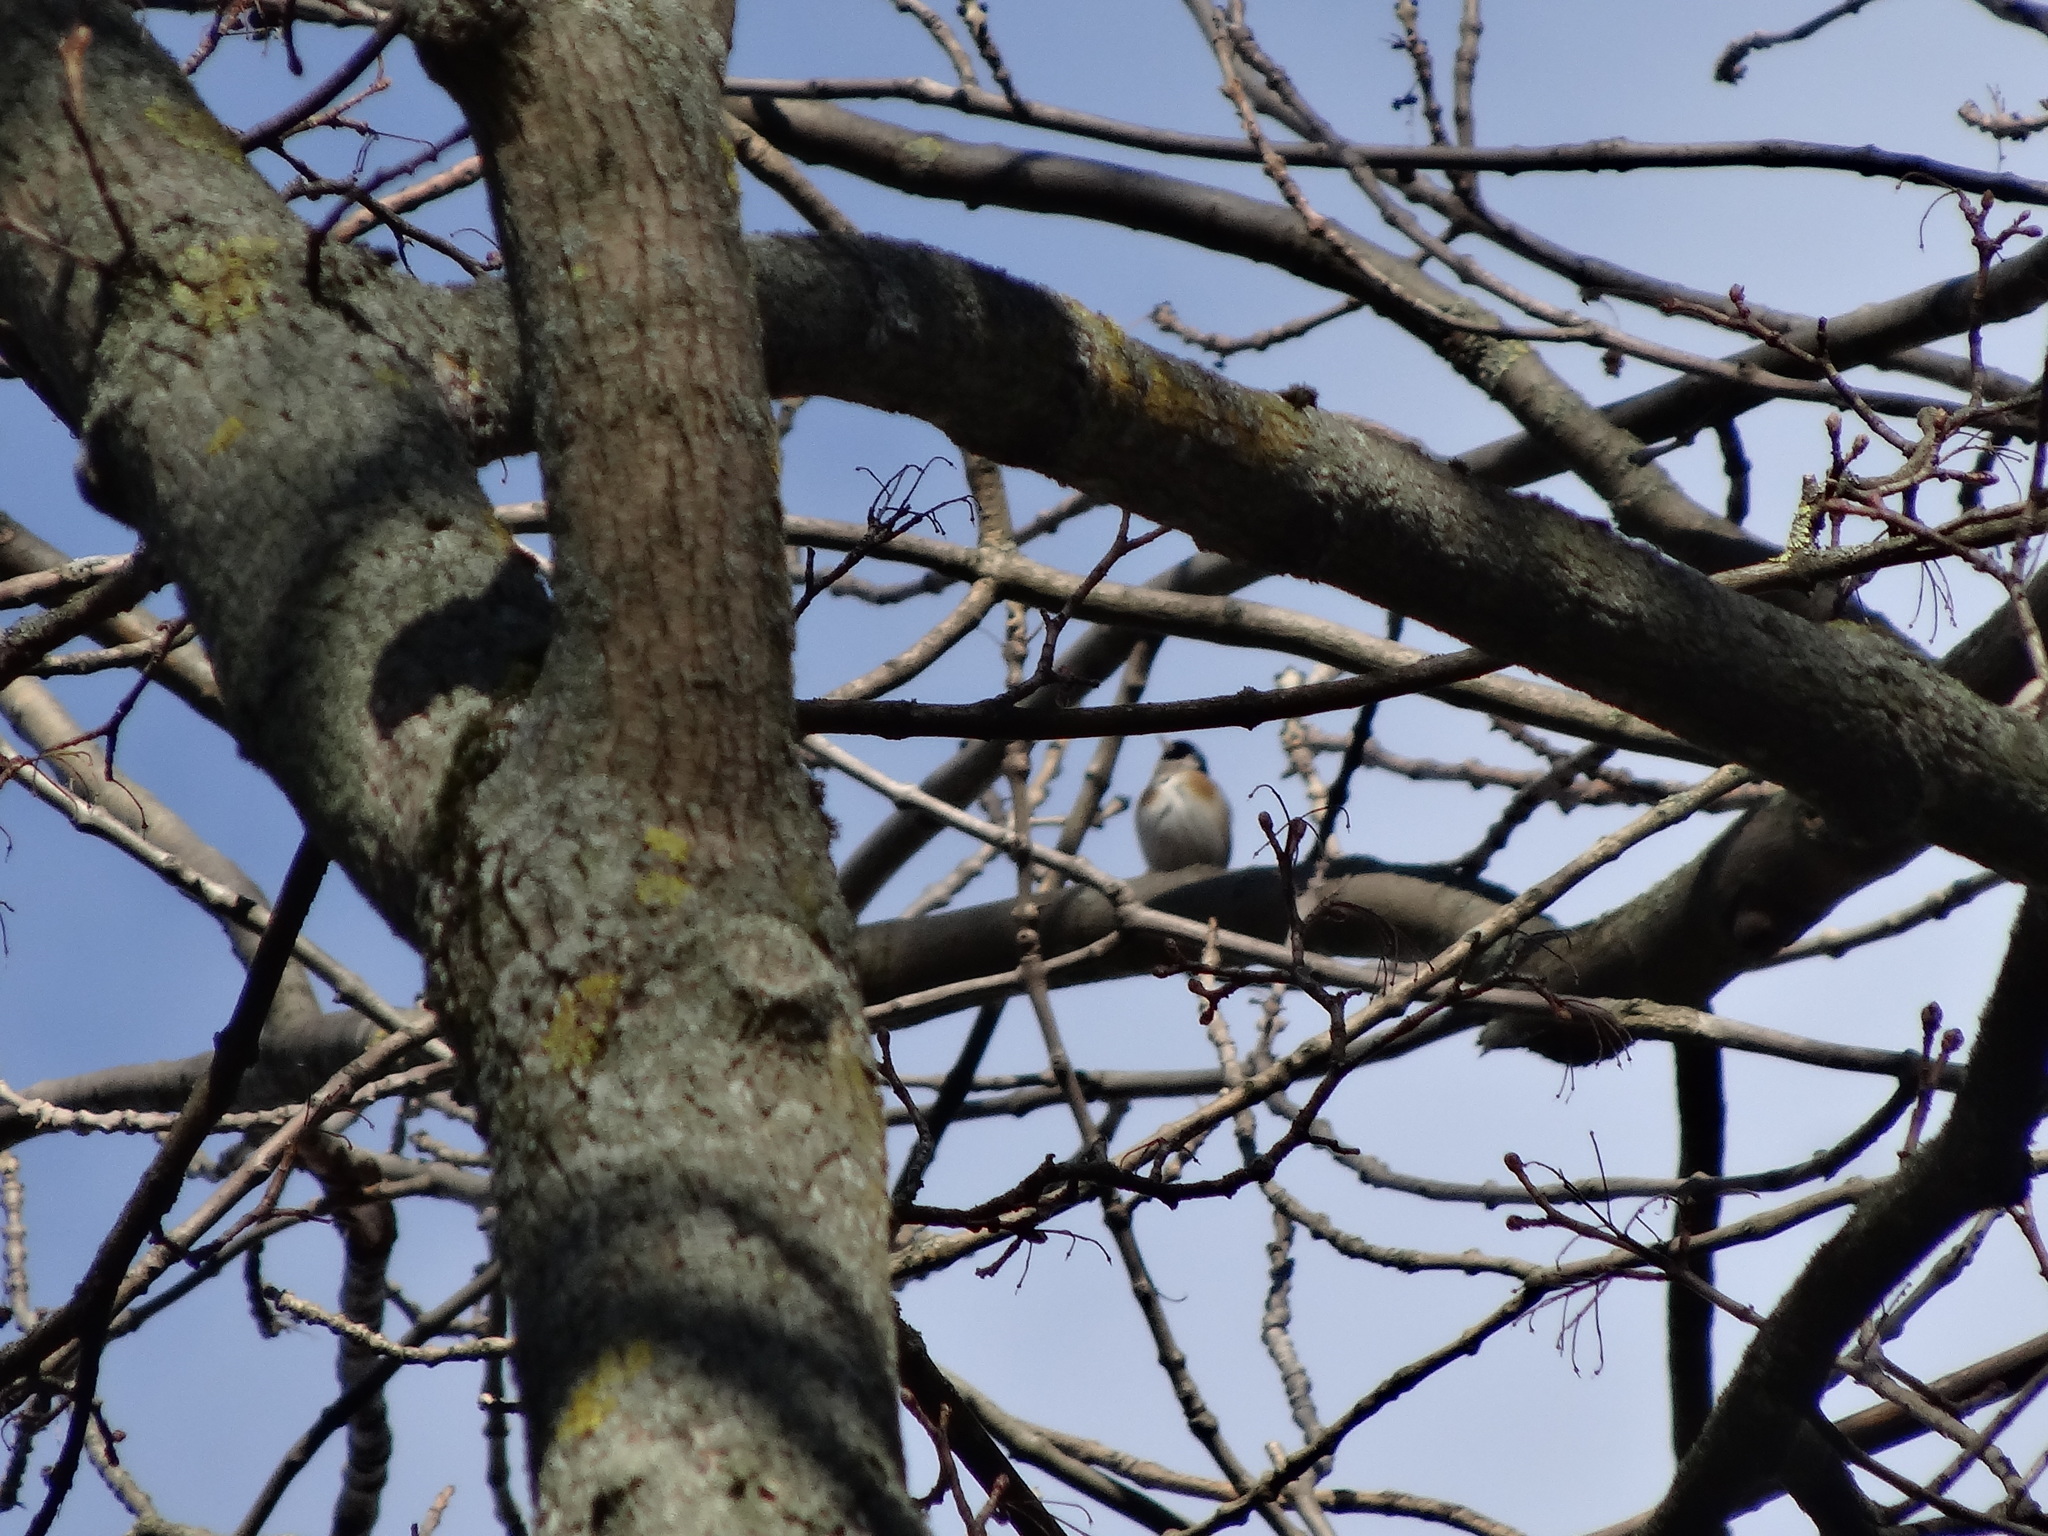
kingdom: Animalia
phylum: Chordata
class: Aves
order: Passeriformes
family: Fringillidae
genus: Carduelis
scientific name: Carduelis carduelis
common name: European goldfinch
